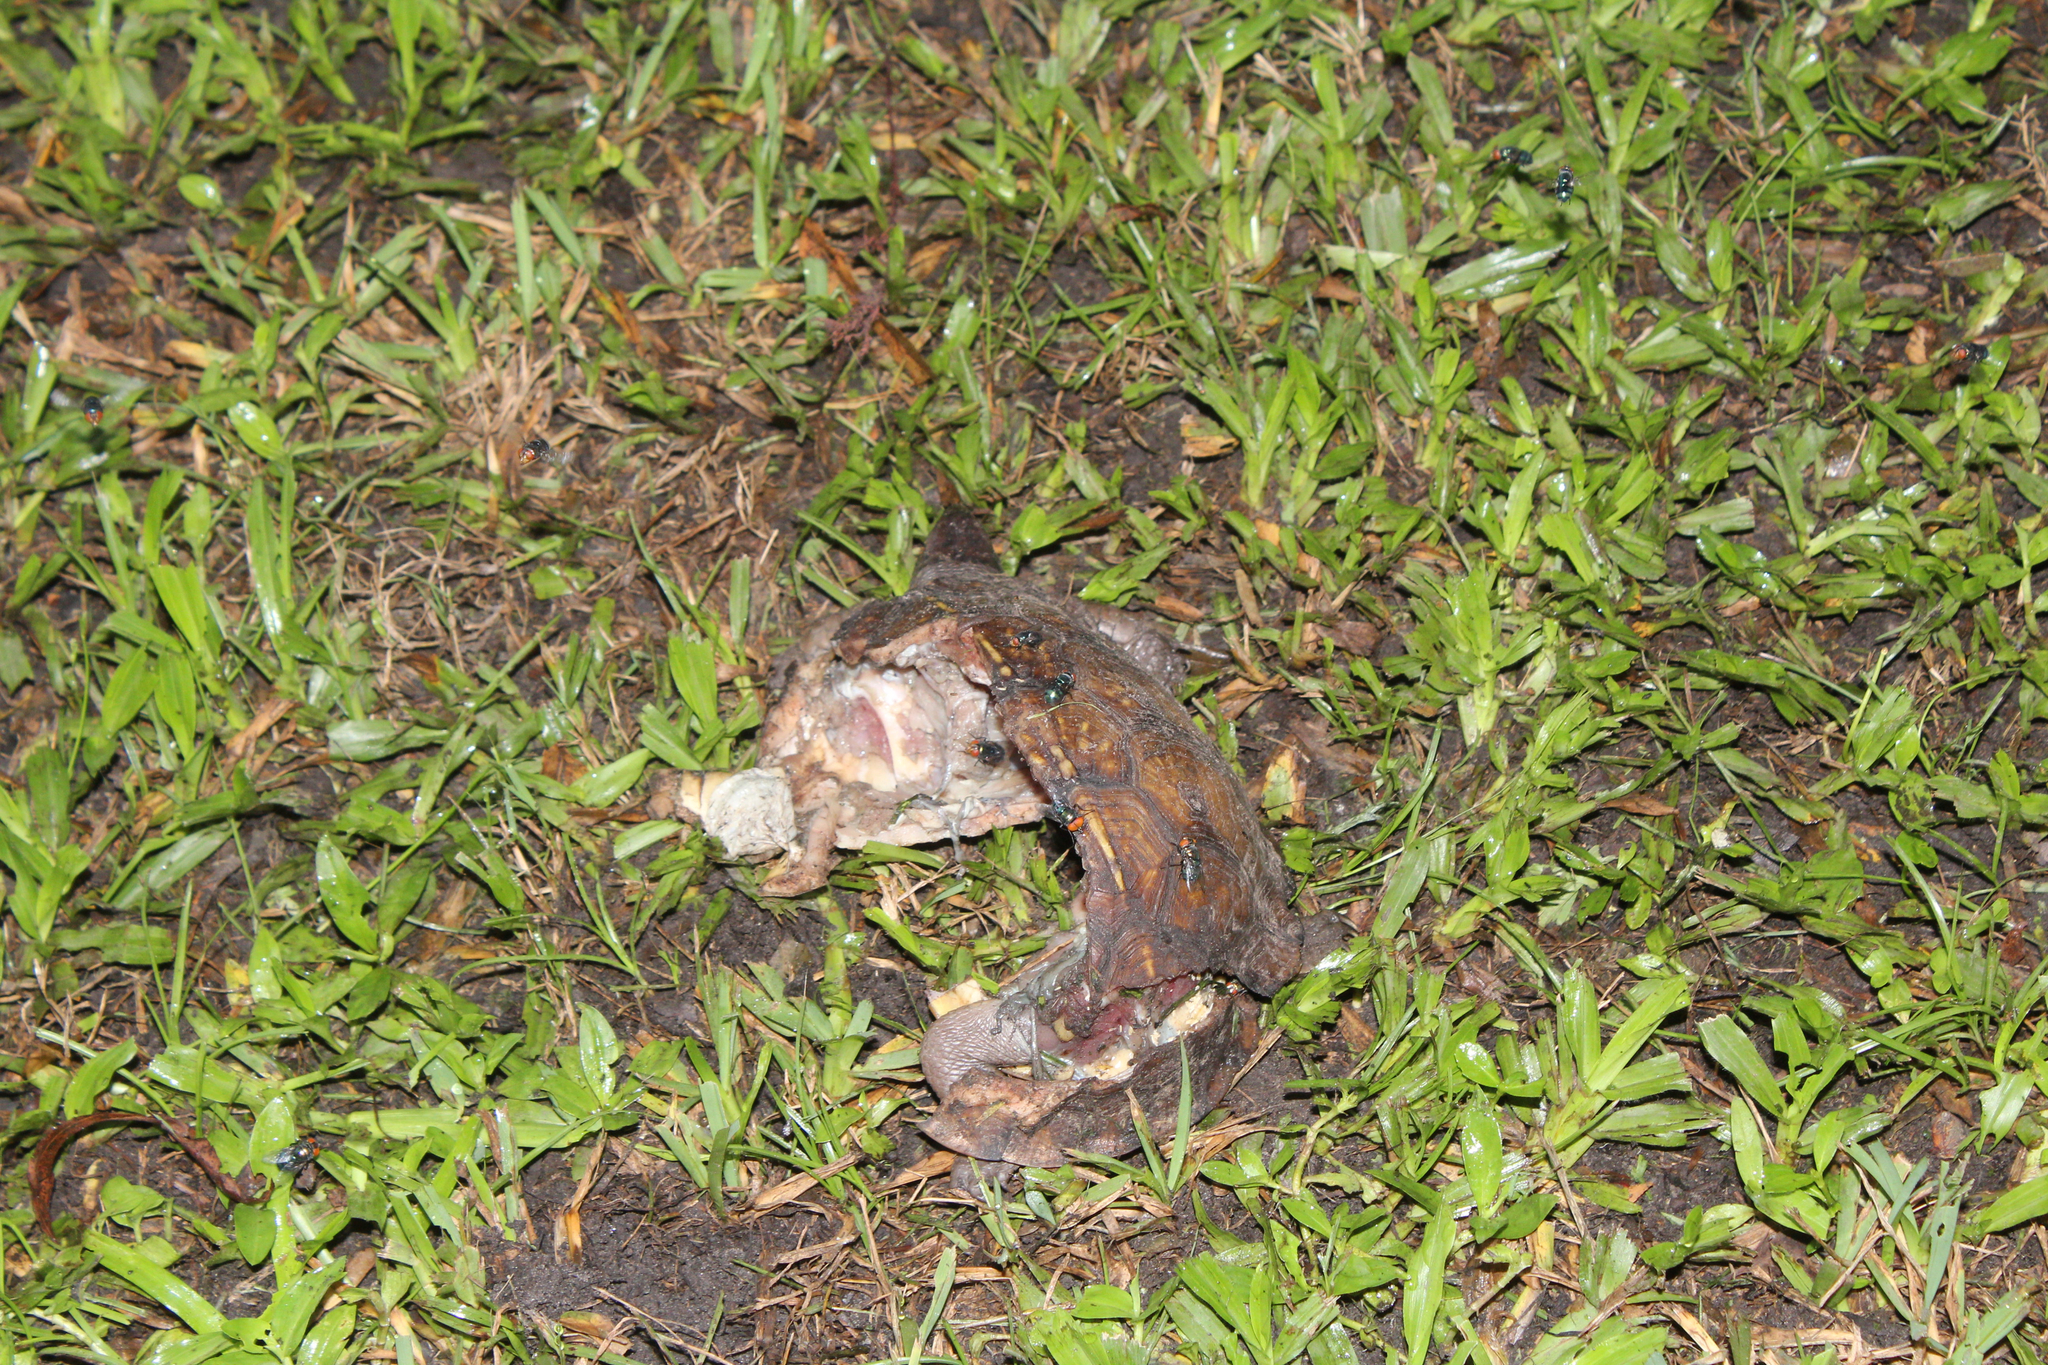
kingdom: Animalia
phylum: Chordata
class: Testudines
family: Emydidae
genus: Terrapene
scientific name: Terrapene carolina
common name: Common box turtle
